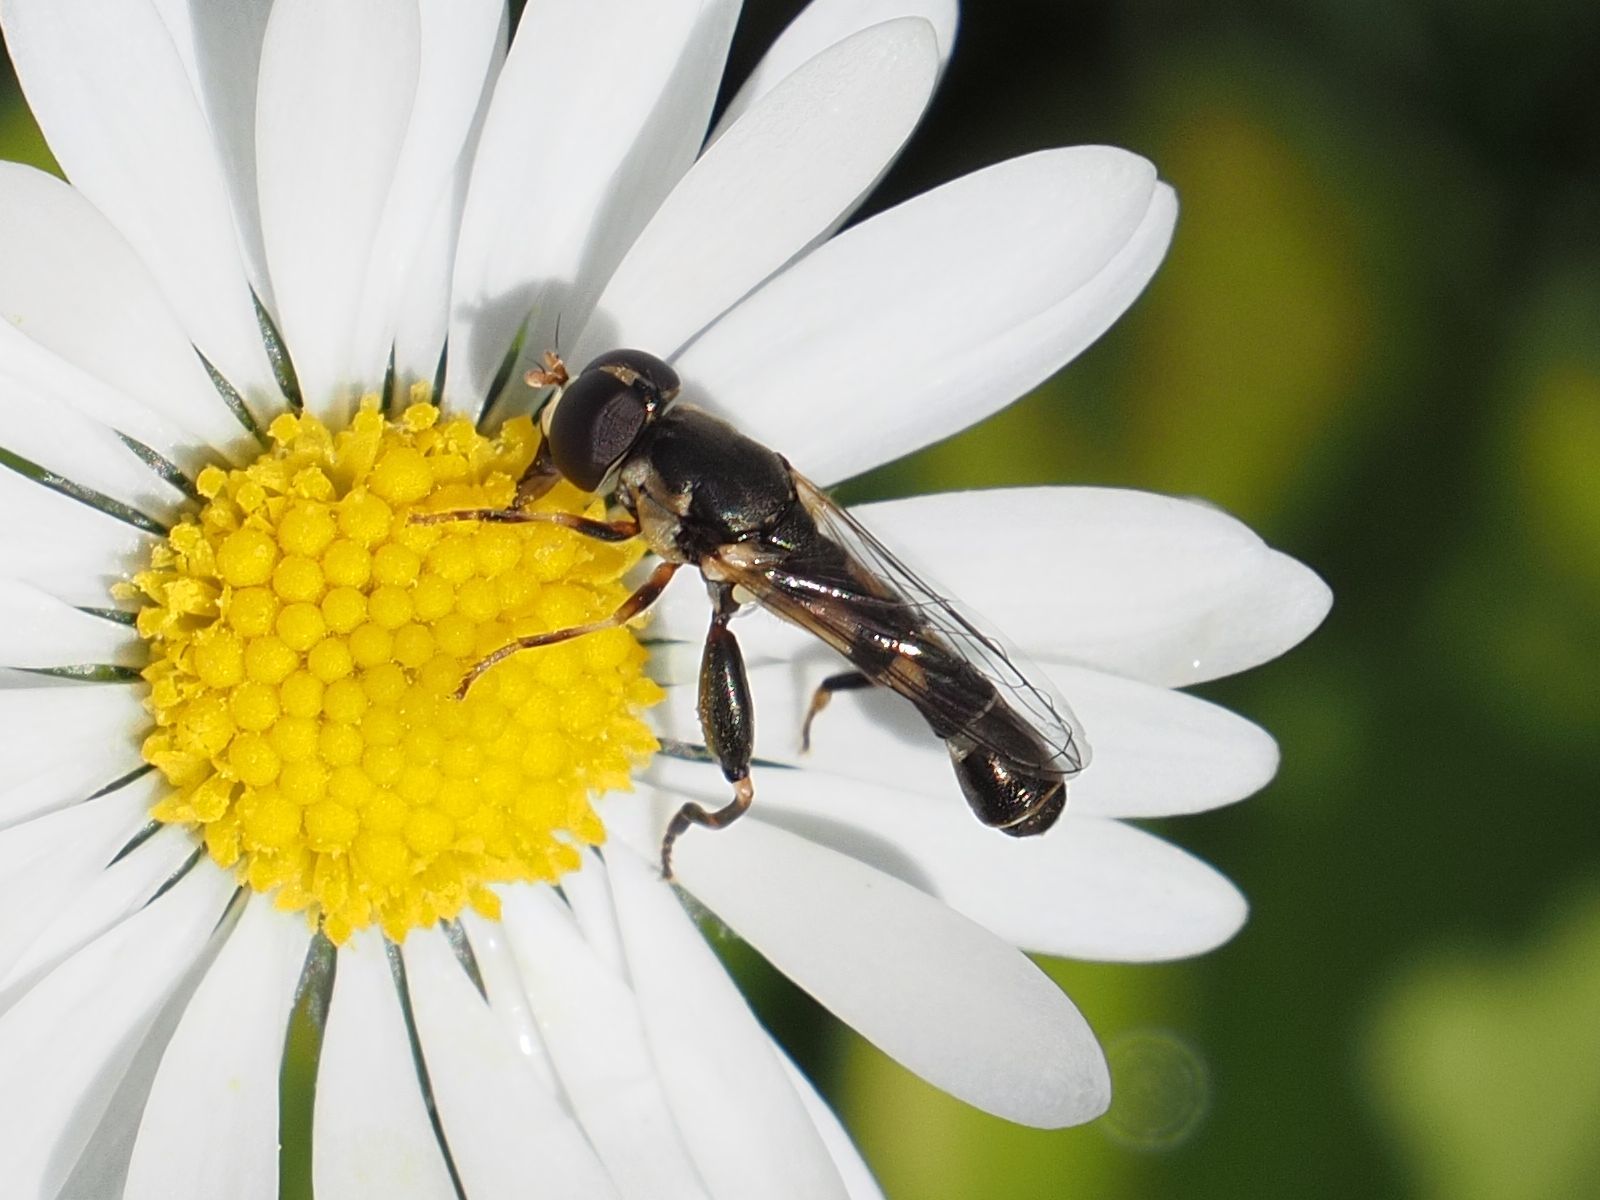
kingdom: Animalia
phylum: Arthropoda
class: Insecta
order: Diptera
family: Syrphidae
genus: Syritta
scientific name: Syritta pipiens
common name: Hover fly
